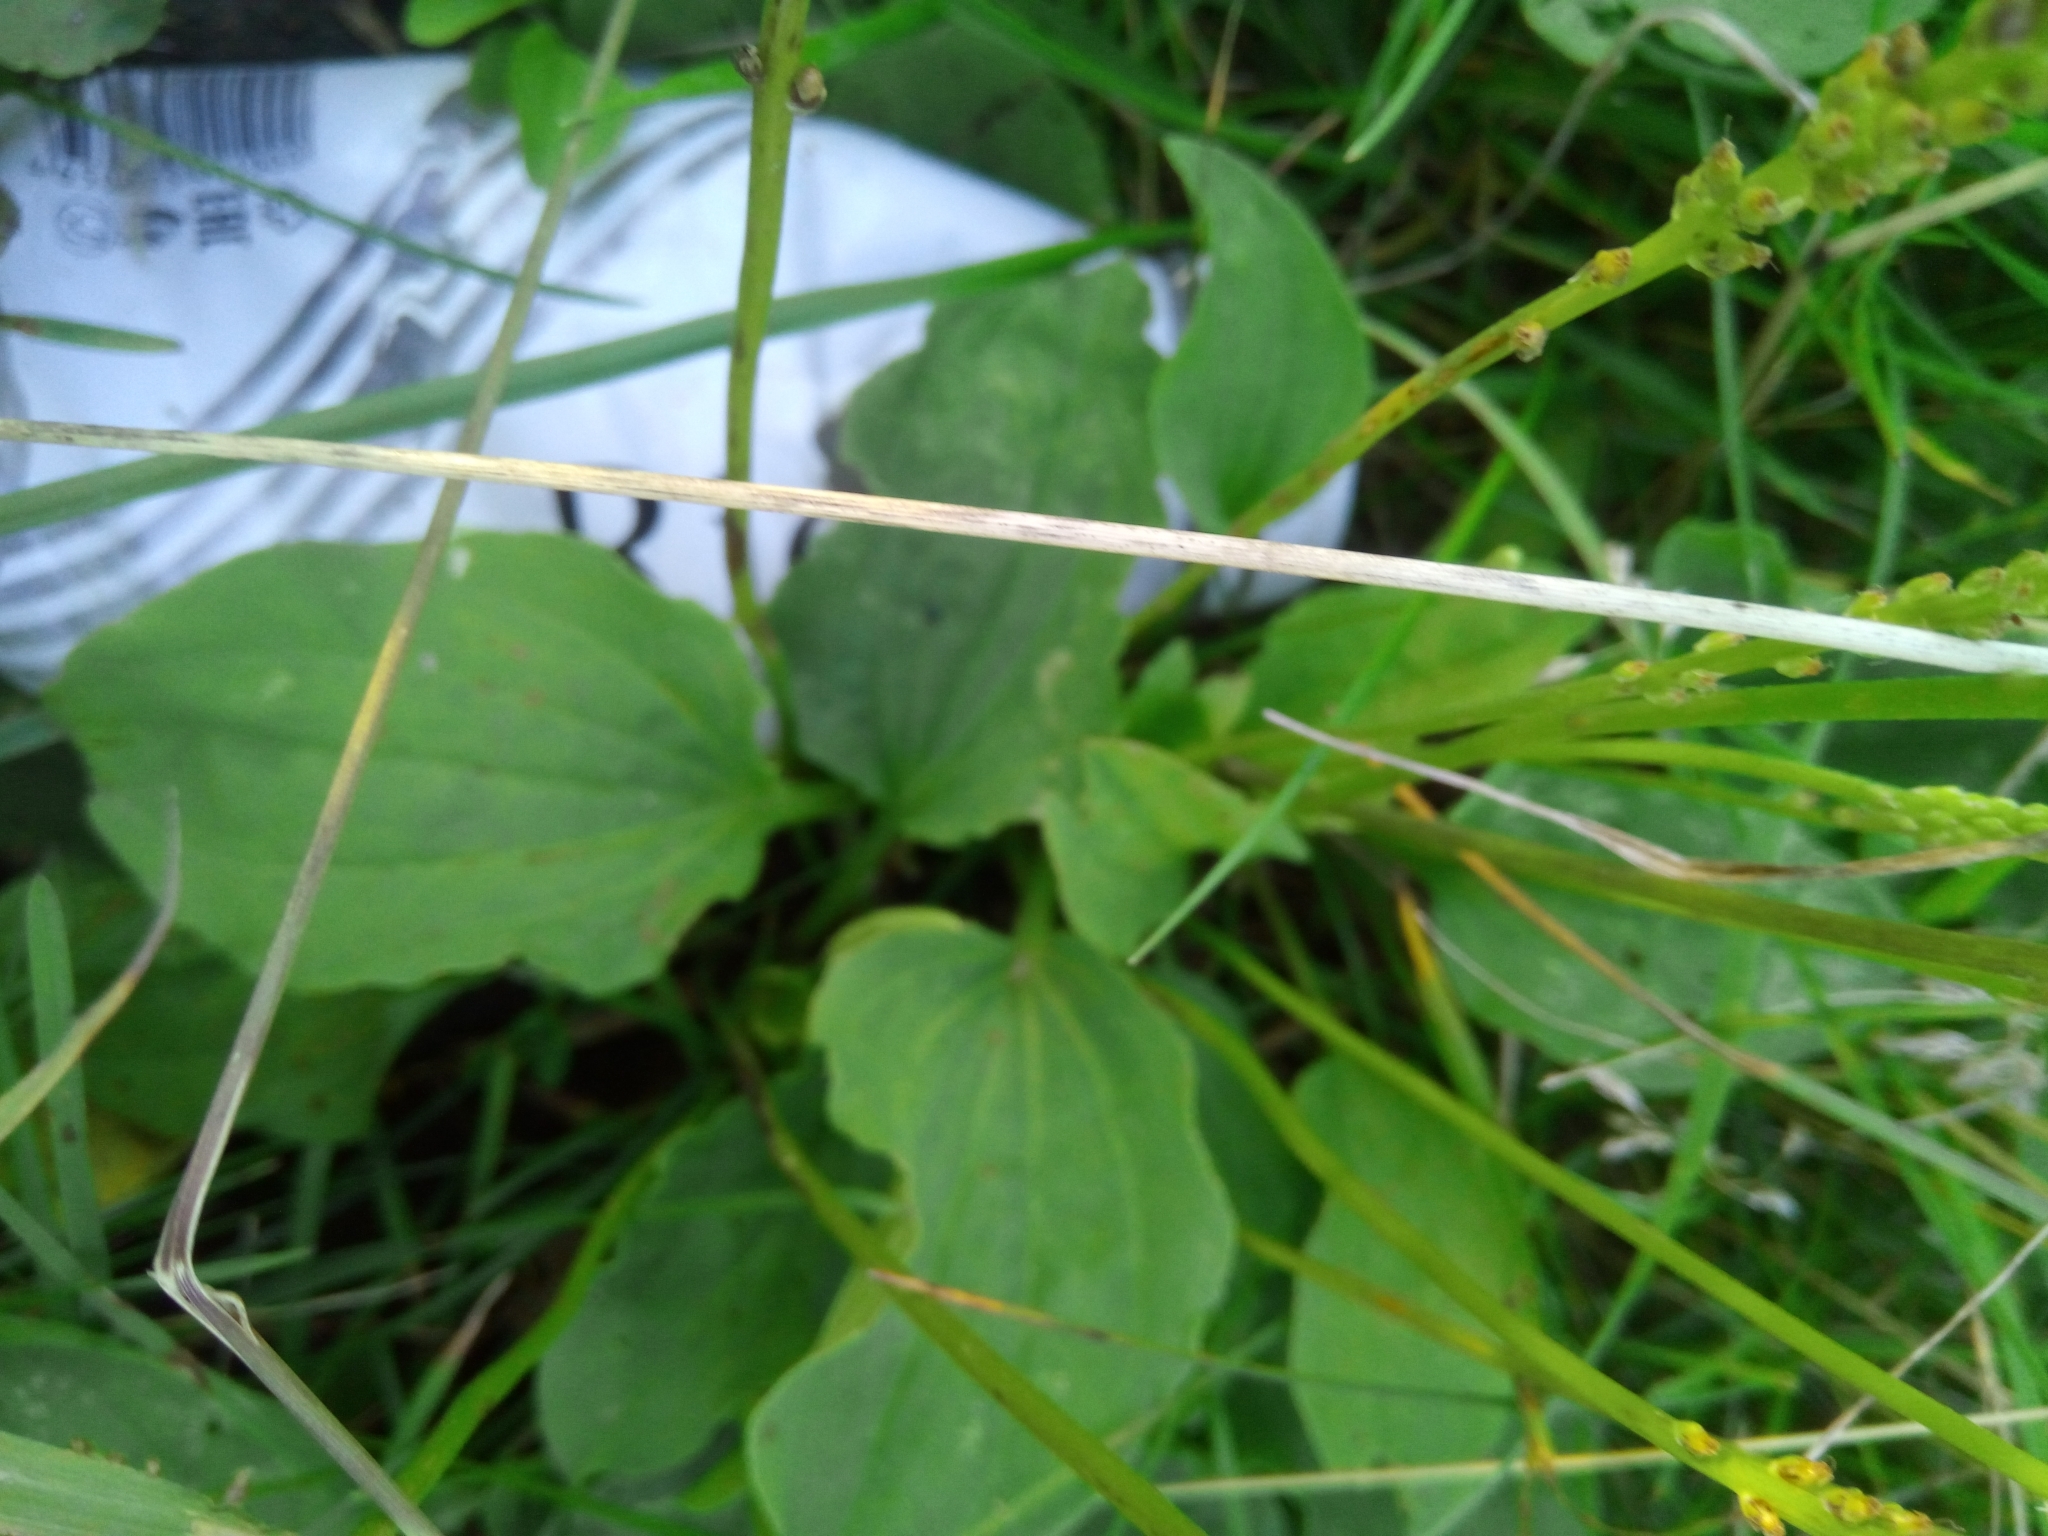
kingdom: Plantae
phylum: Tracheophyta
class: Magnoliopsida
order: Lamiales
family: Plantaginaceae
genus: Plantago
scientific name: Plantago major
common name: Common plantain
